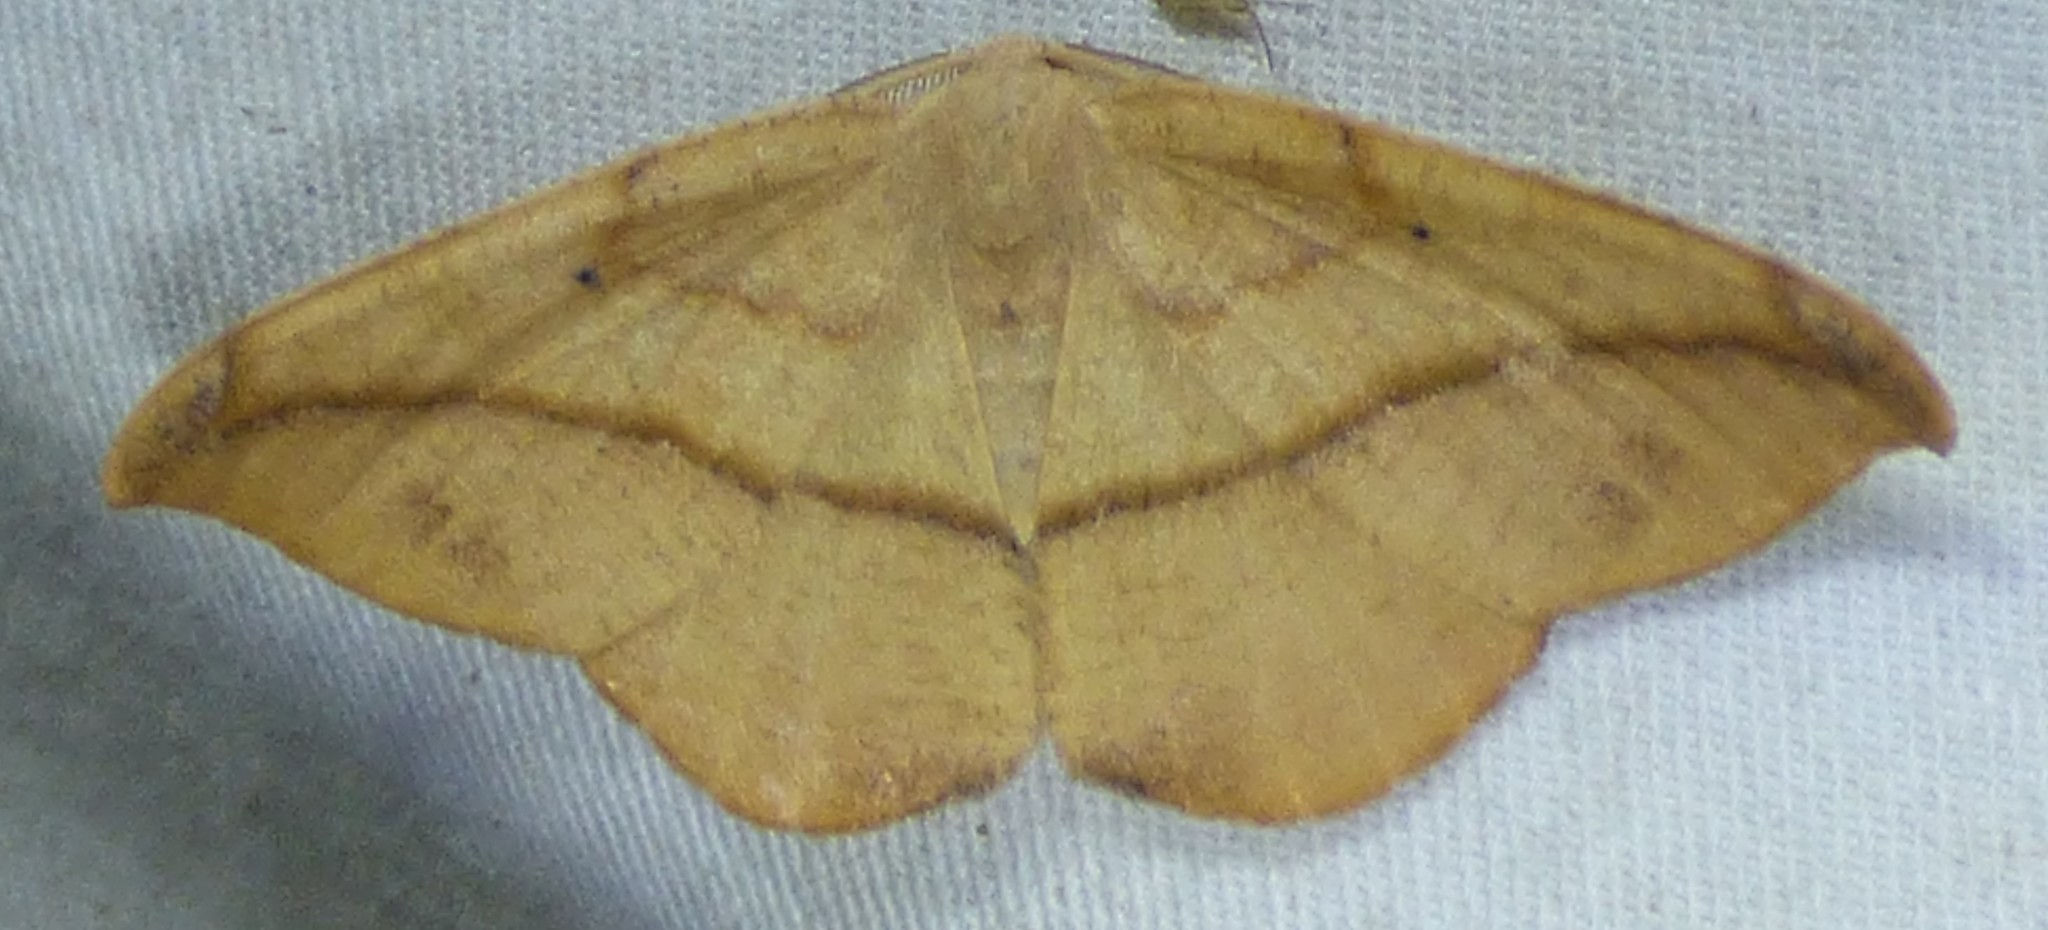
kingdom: Animalia
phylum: Arthropoda
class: Insecta
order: Lepidoptera
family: Geometridae
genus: Patalene
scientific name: Patalene olyzonaria
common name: Juniper geometer moth
